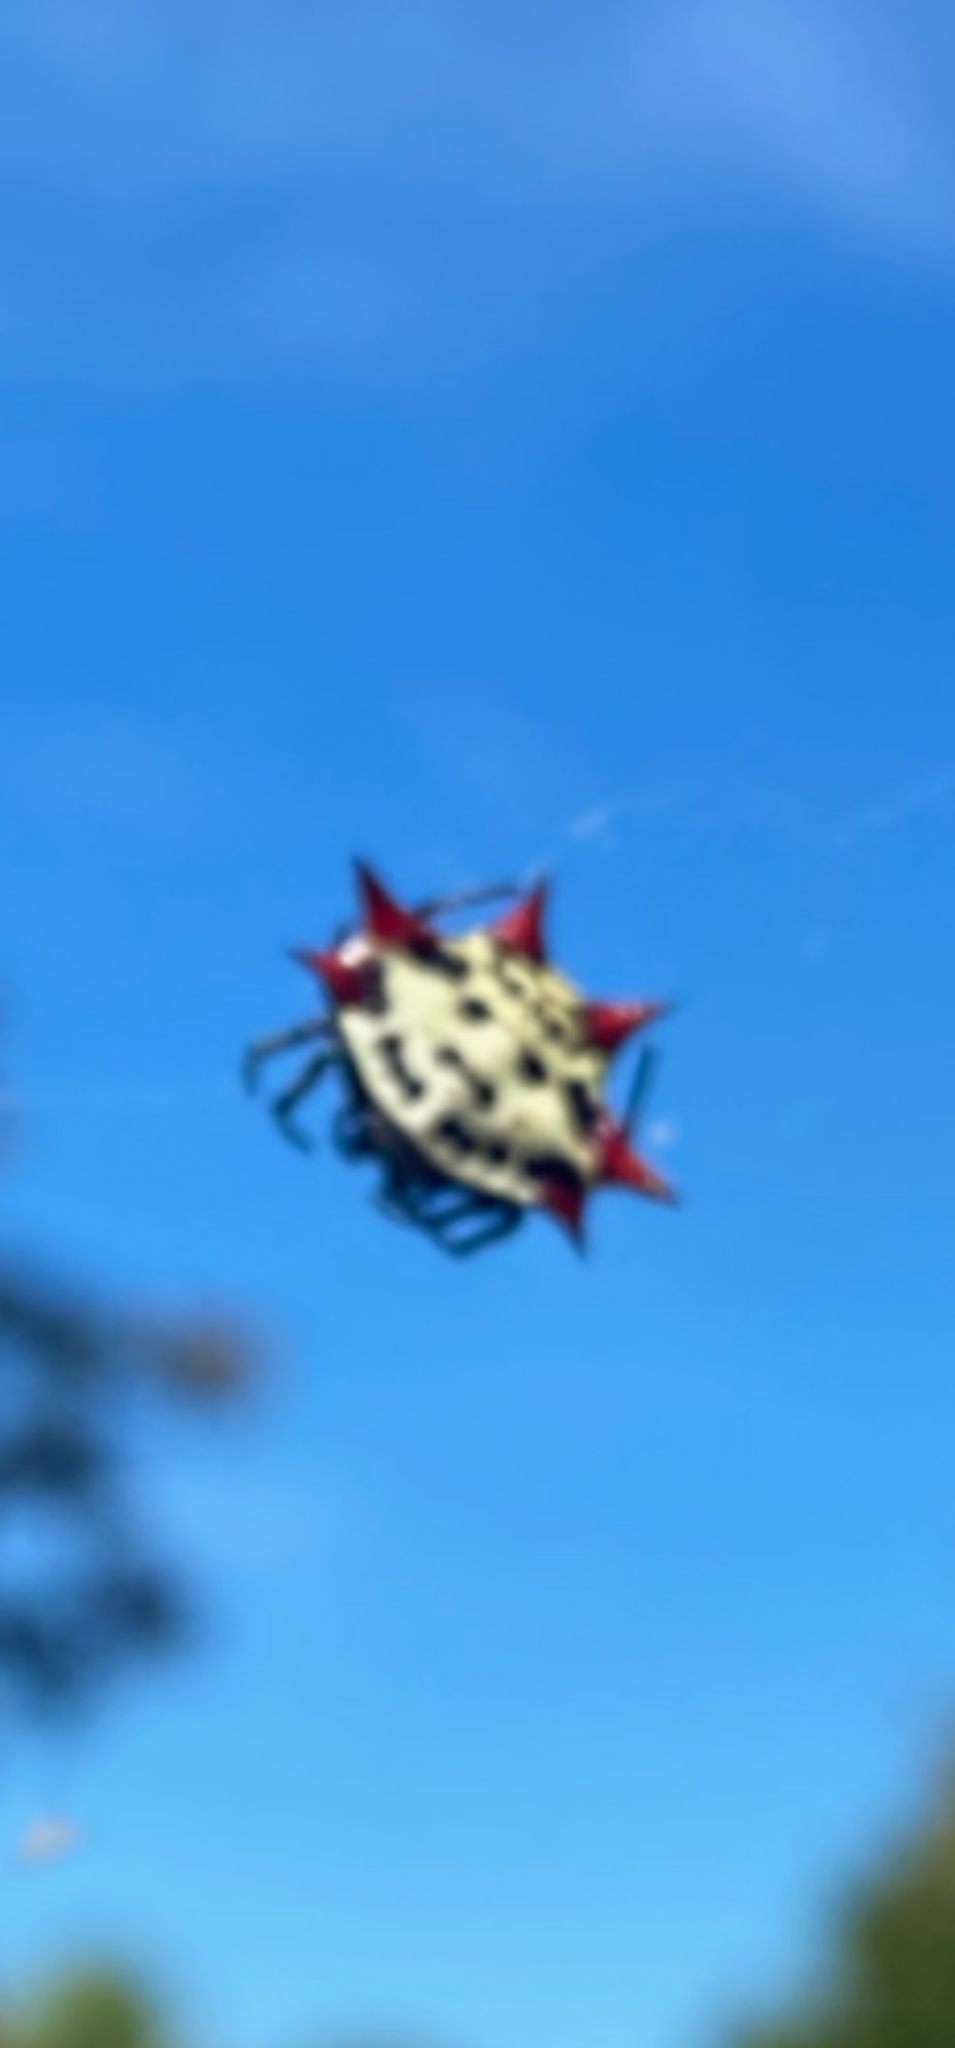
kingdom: Animalia
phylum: Arthropoda
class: Arachnida
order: Araneae
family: Araneidae
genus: Gasteracantha
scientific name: Gasteracantha cancriformis
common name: Orb weavers
